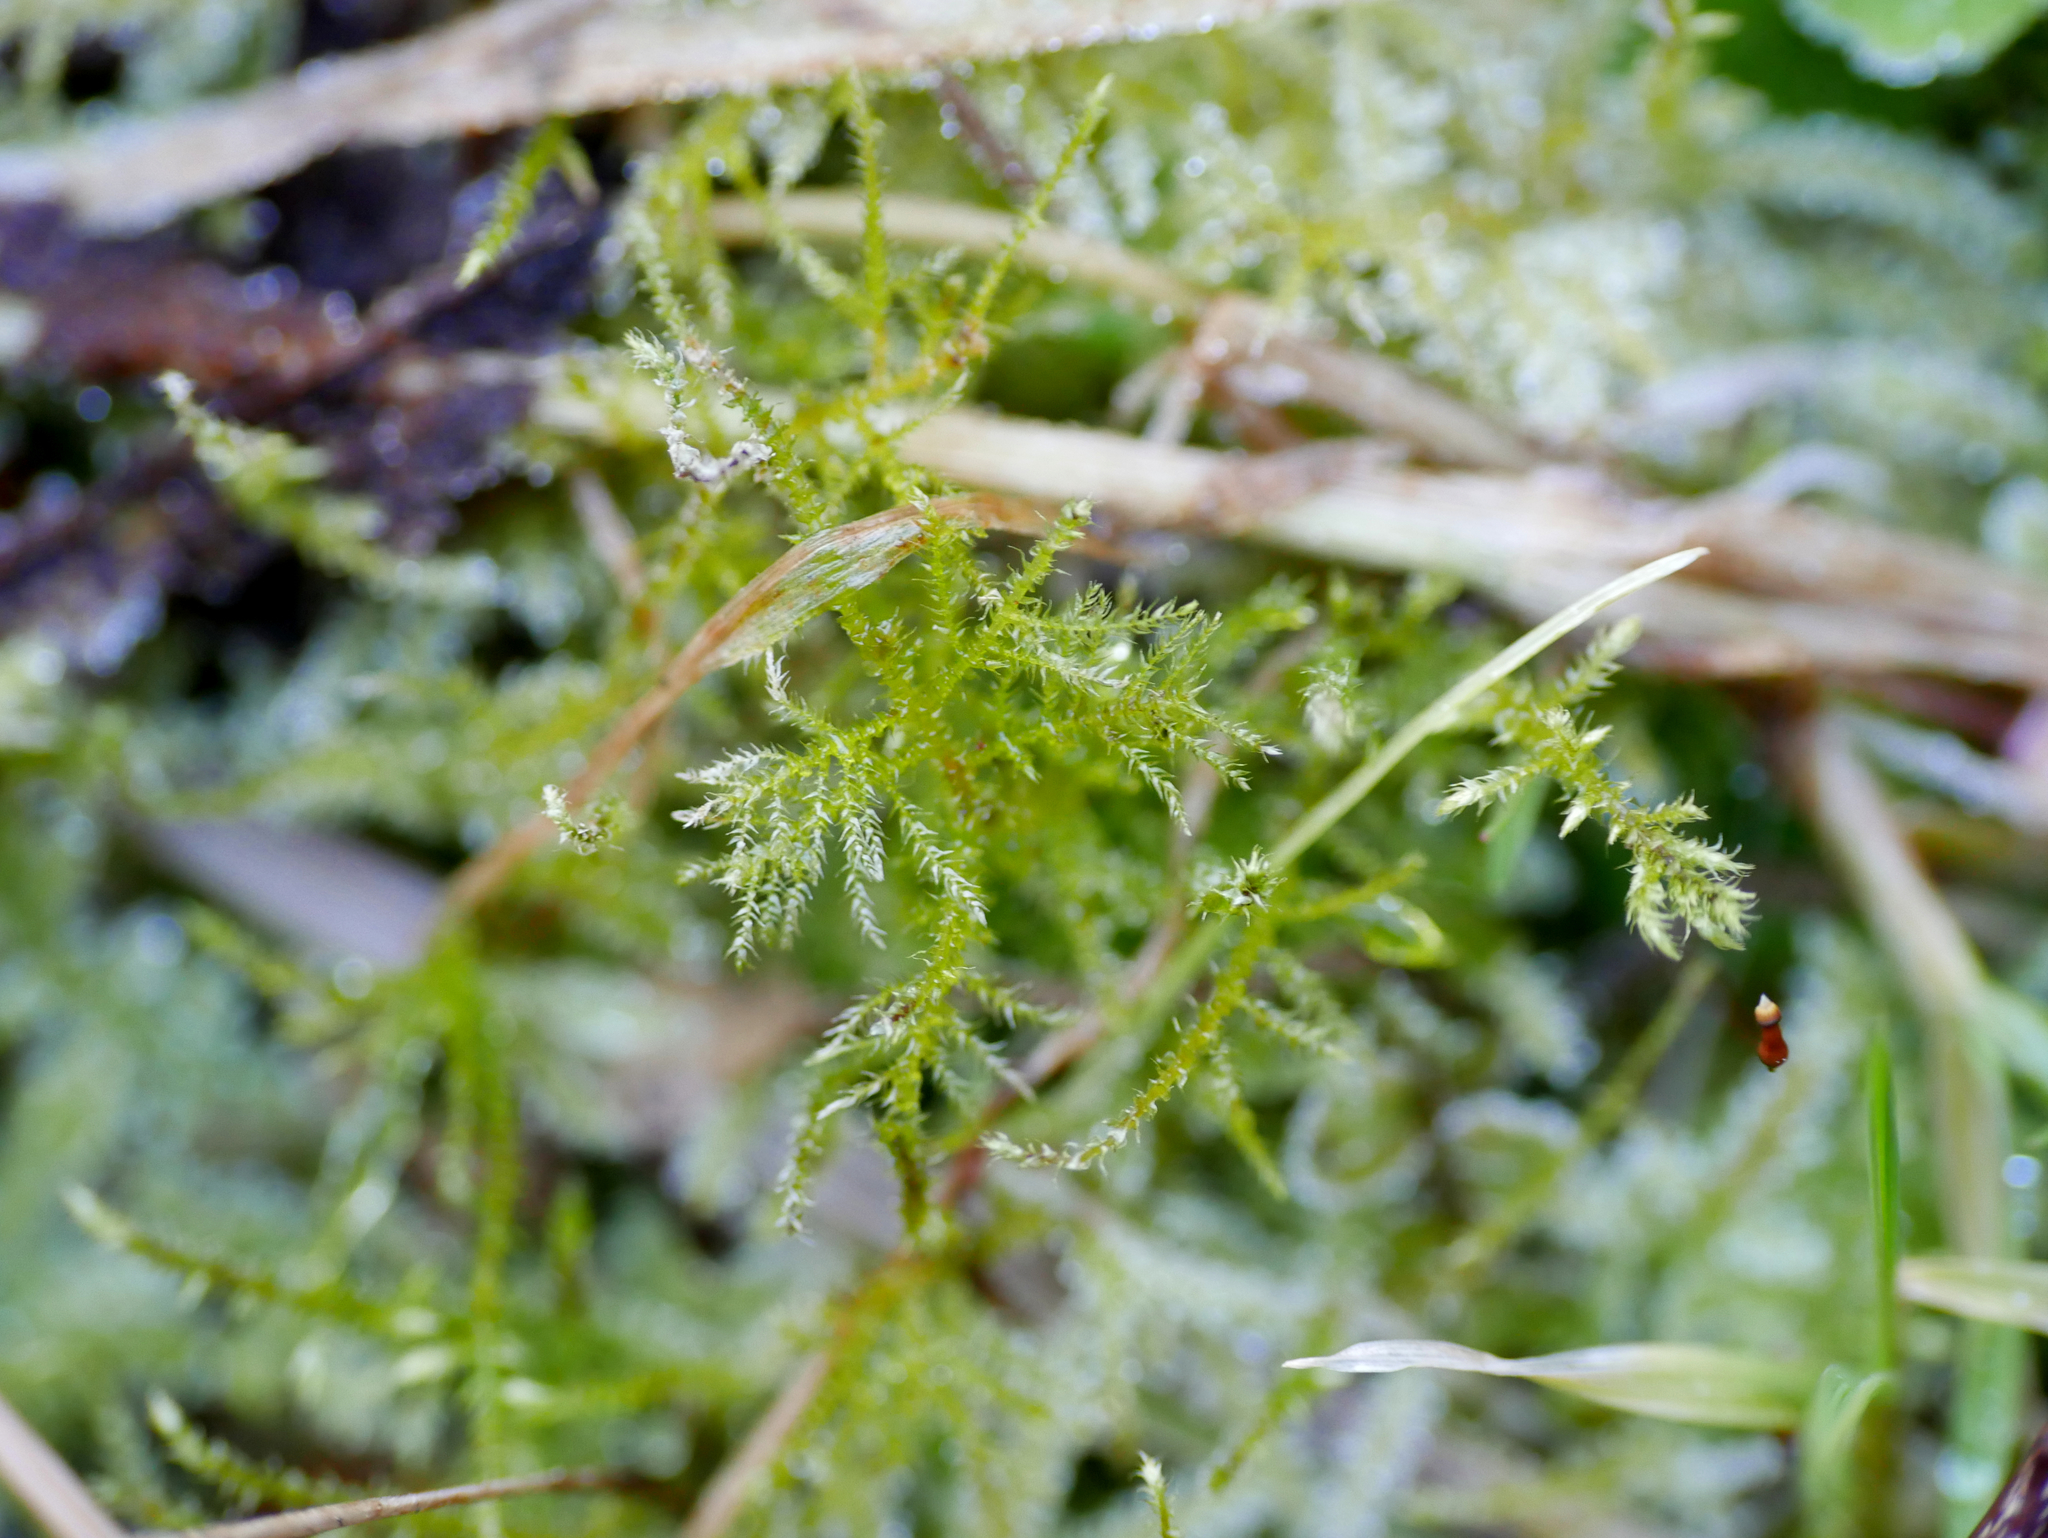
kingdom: Plantae
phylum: Bryophyta
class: Bryopsida
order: Hypnales
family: Brachytheciaceae
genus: Kindbergia
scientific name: Kindbergia praelonga
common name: Slender beaked moss
